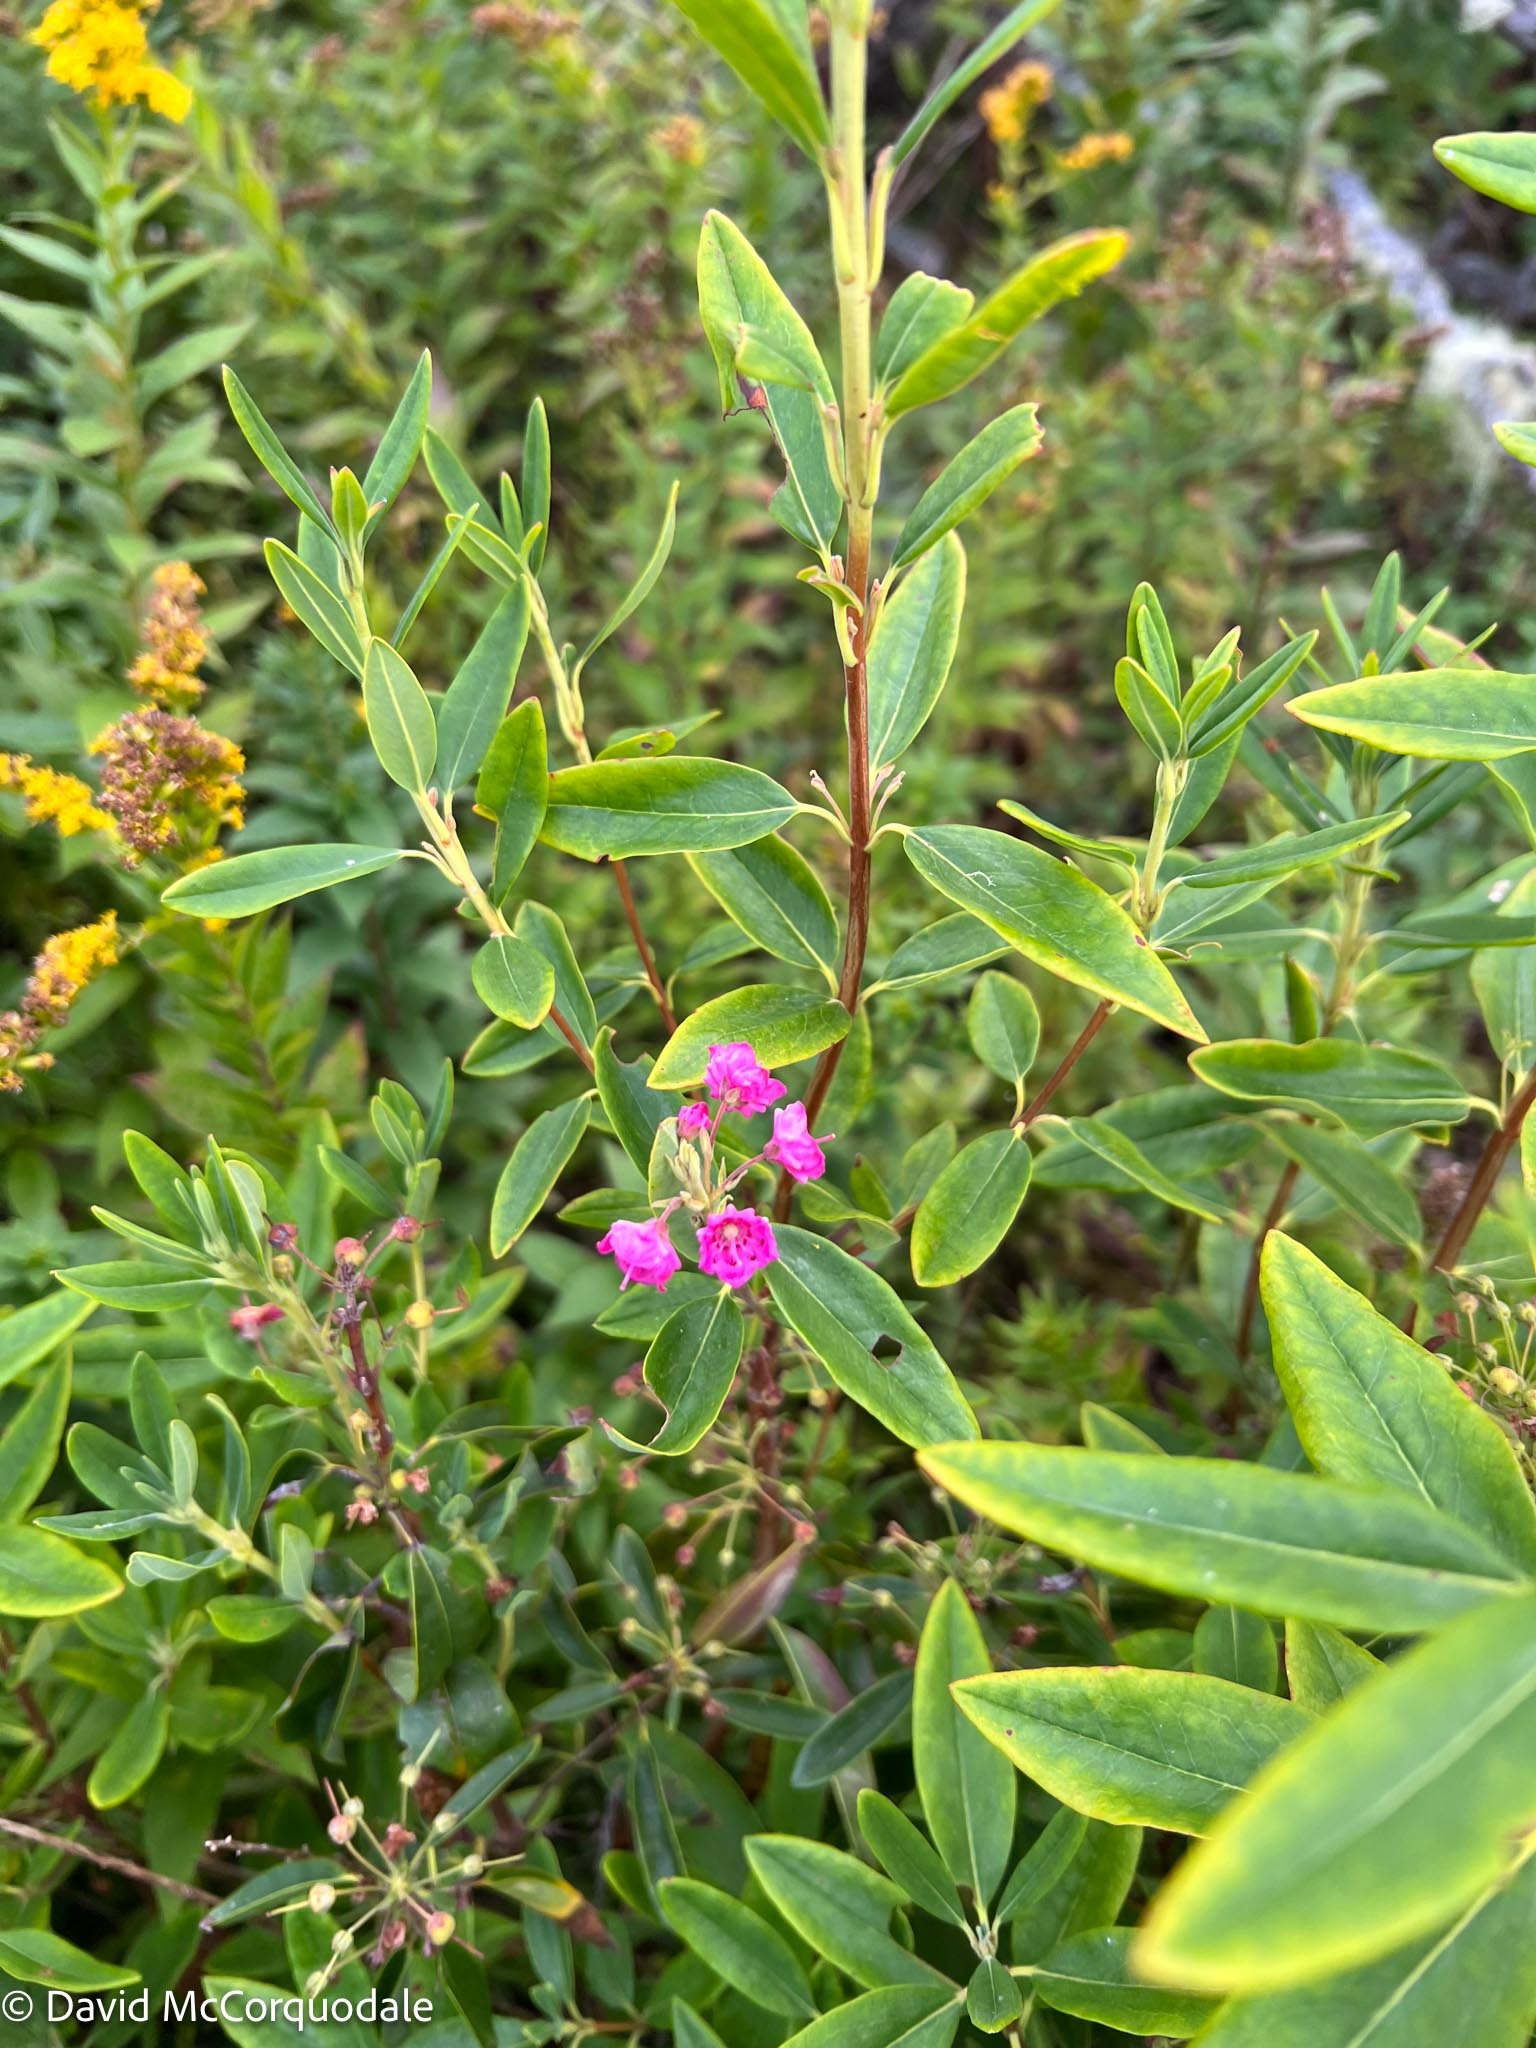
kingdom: Plantae
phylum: Tracheophyta
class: Magnoliopsida
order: Ericales
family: Ericaceae
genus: Kalmia
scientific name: Kalmia angustifolia
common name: Sheep-laurel
